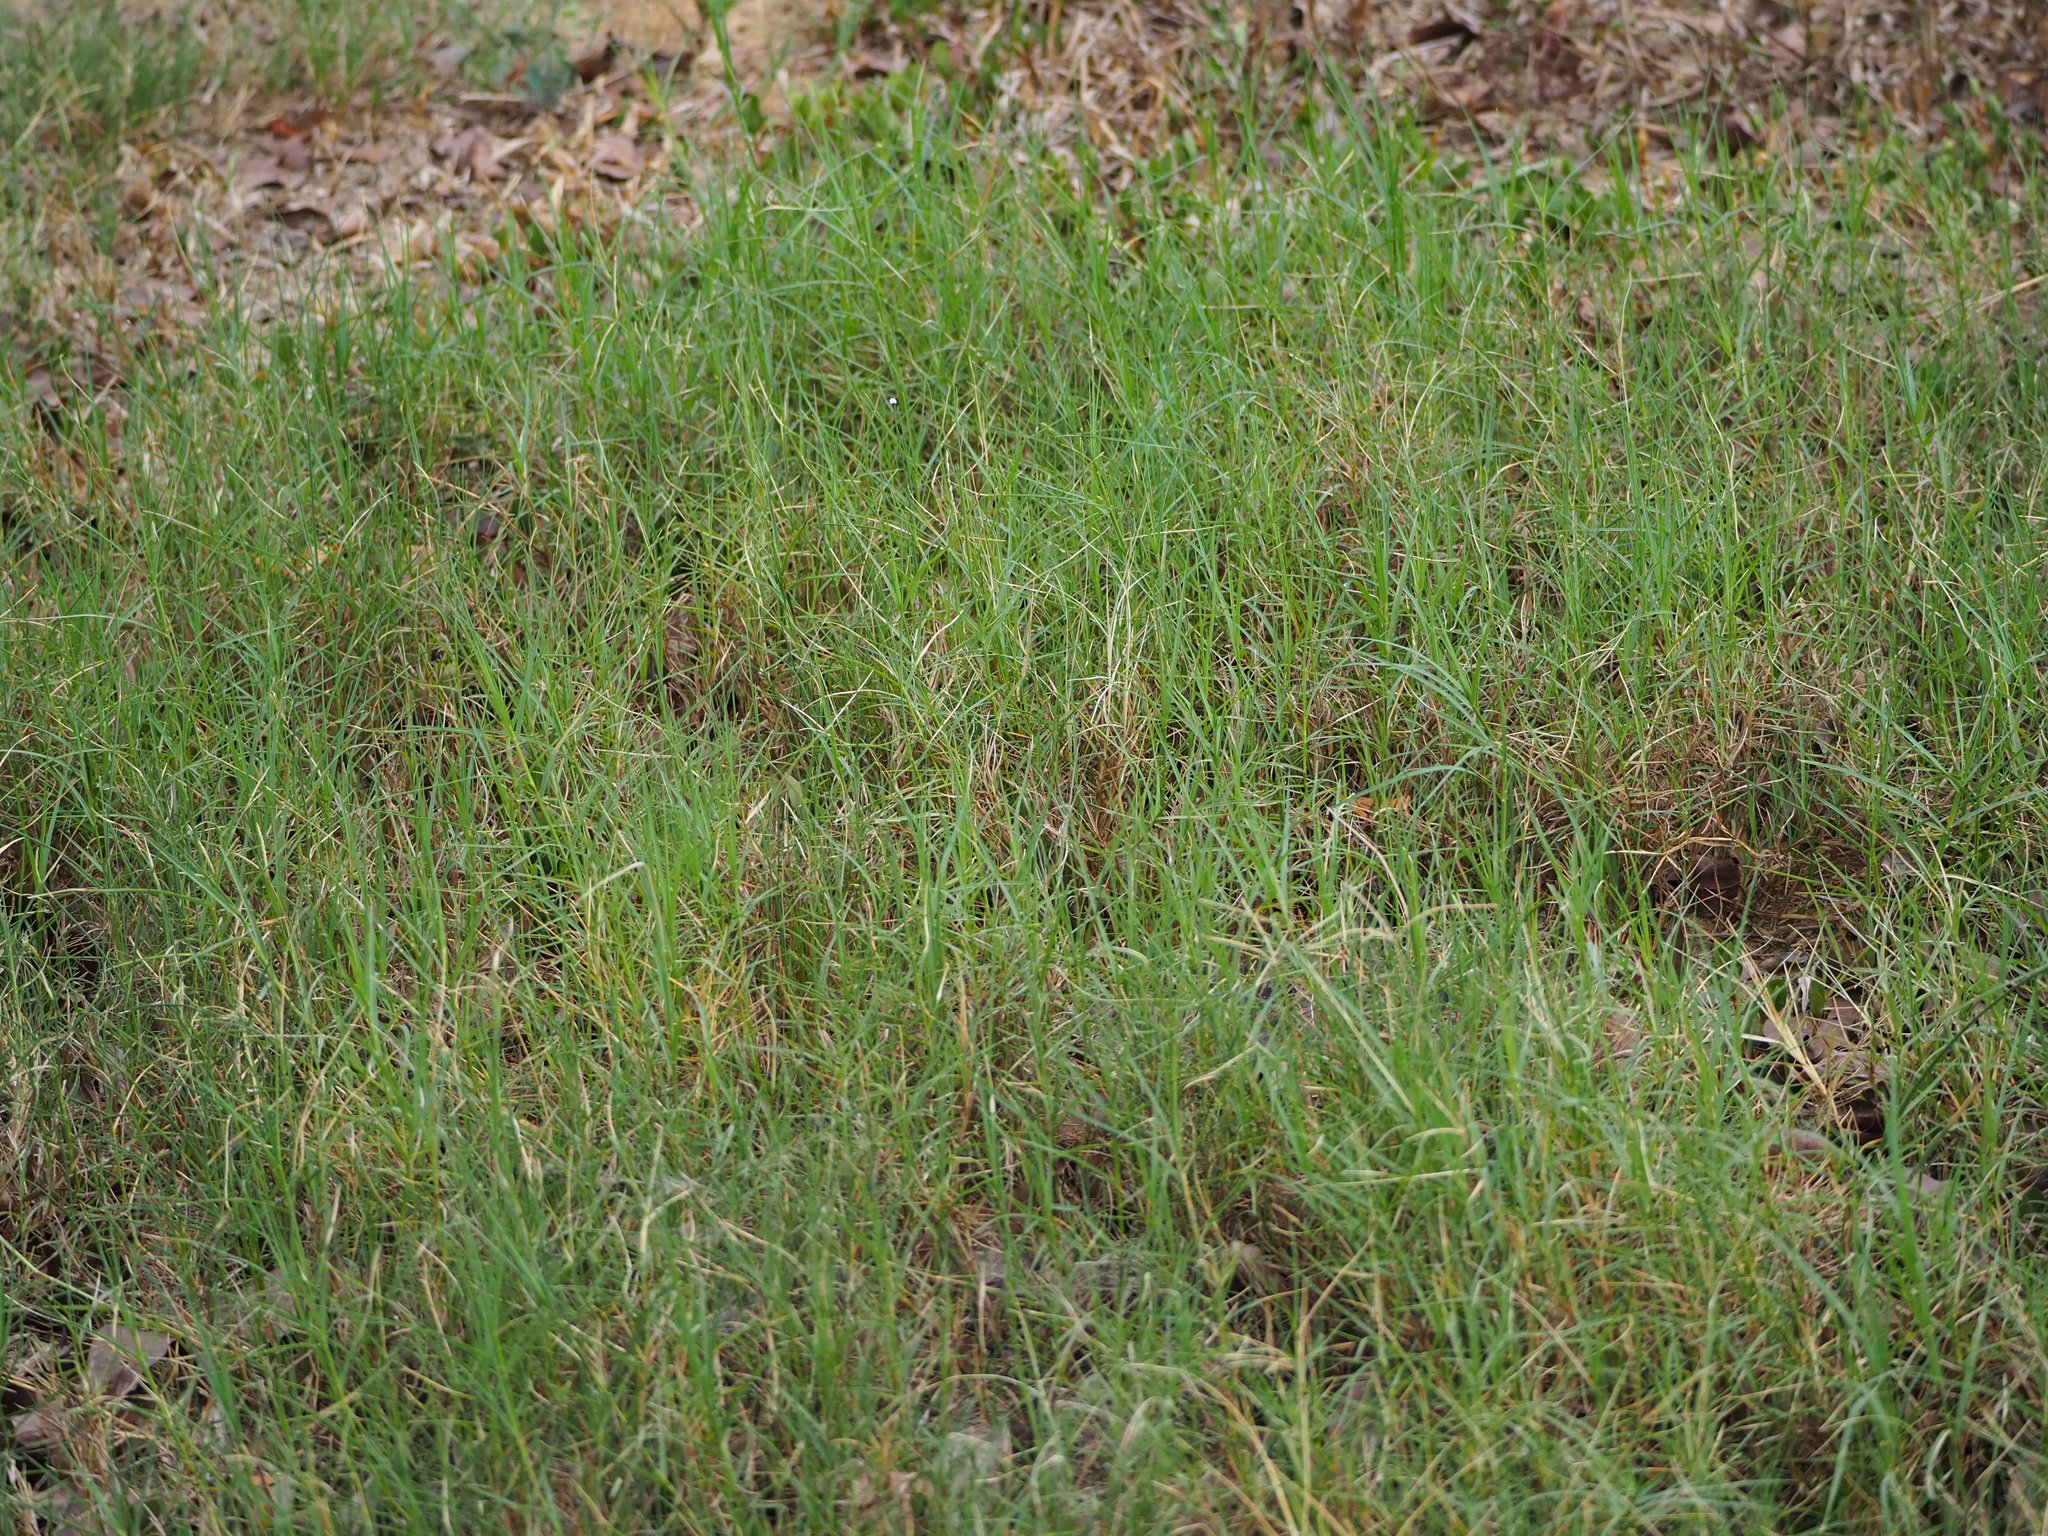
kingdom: Plantae
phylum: Tracheophyta
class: Liliopsida
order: Poales
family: Poaceae
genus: Cynodon
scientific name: Cynodon dactylon
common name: Bermuda grass
